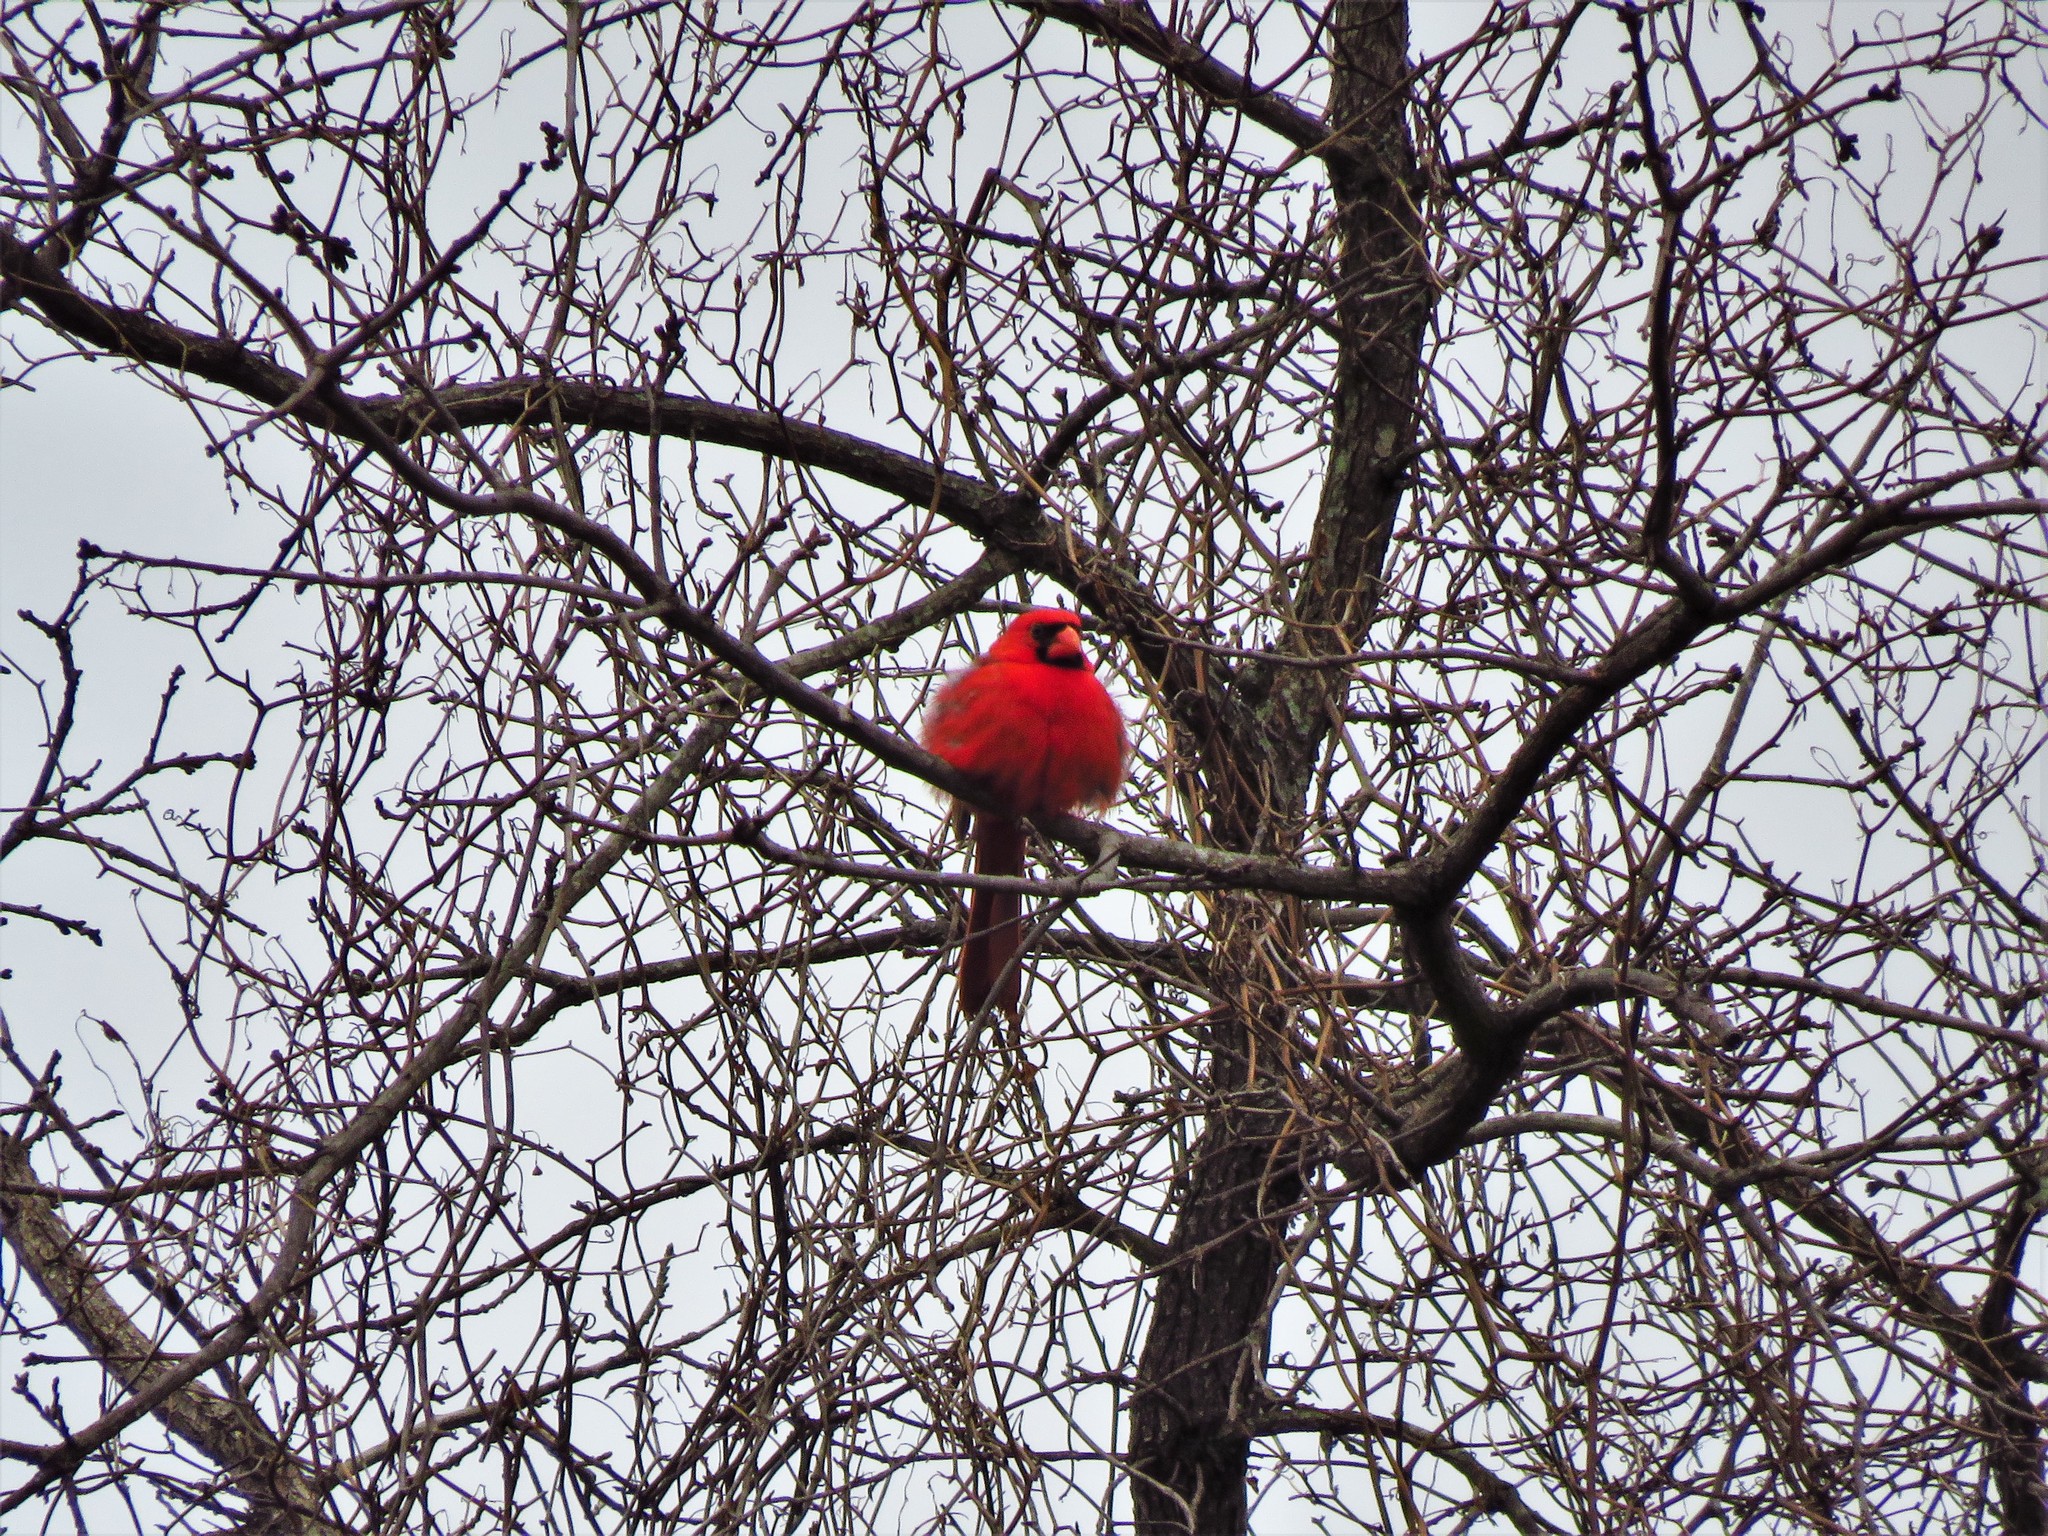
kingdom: Animalia
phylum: Chordata
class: Aves
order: Passeriformes
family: Cardinalidae
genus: Cardinalis
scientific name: Cardinalis cardinalis
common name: Northern cardinal
